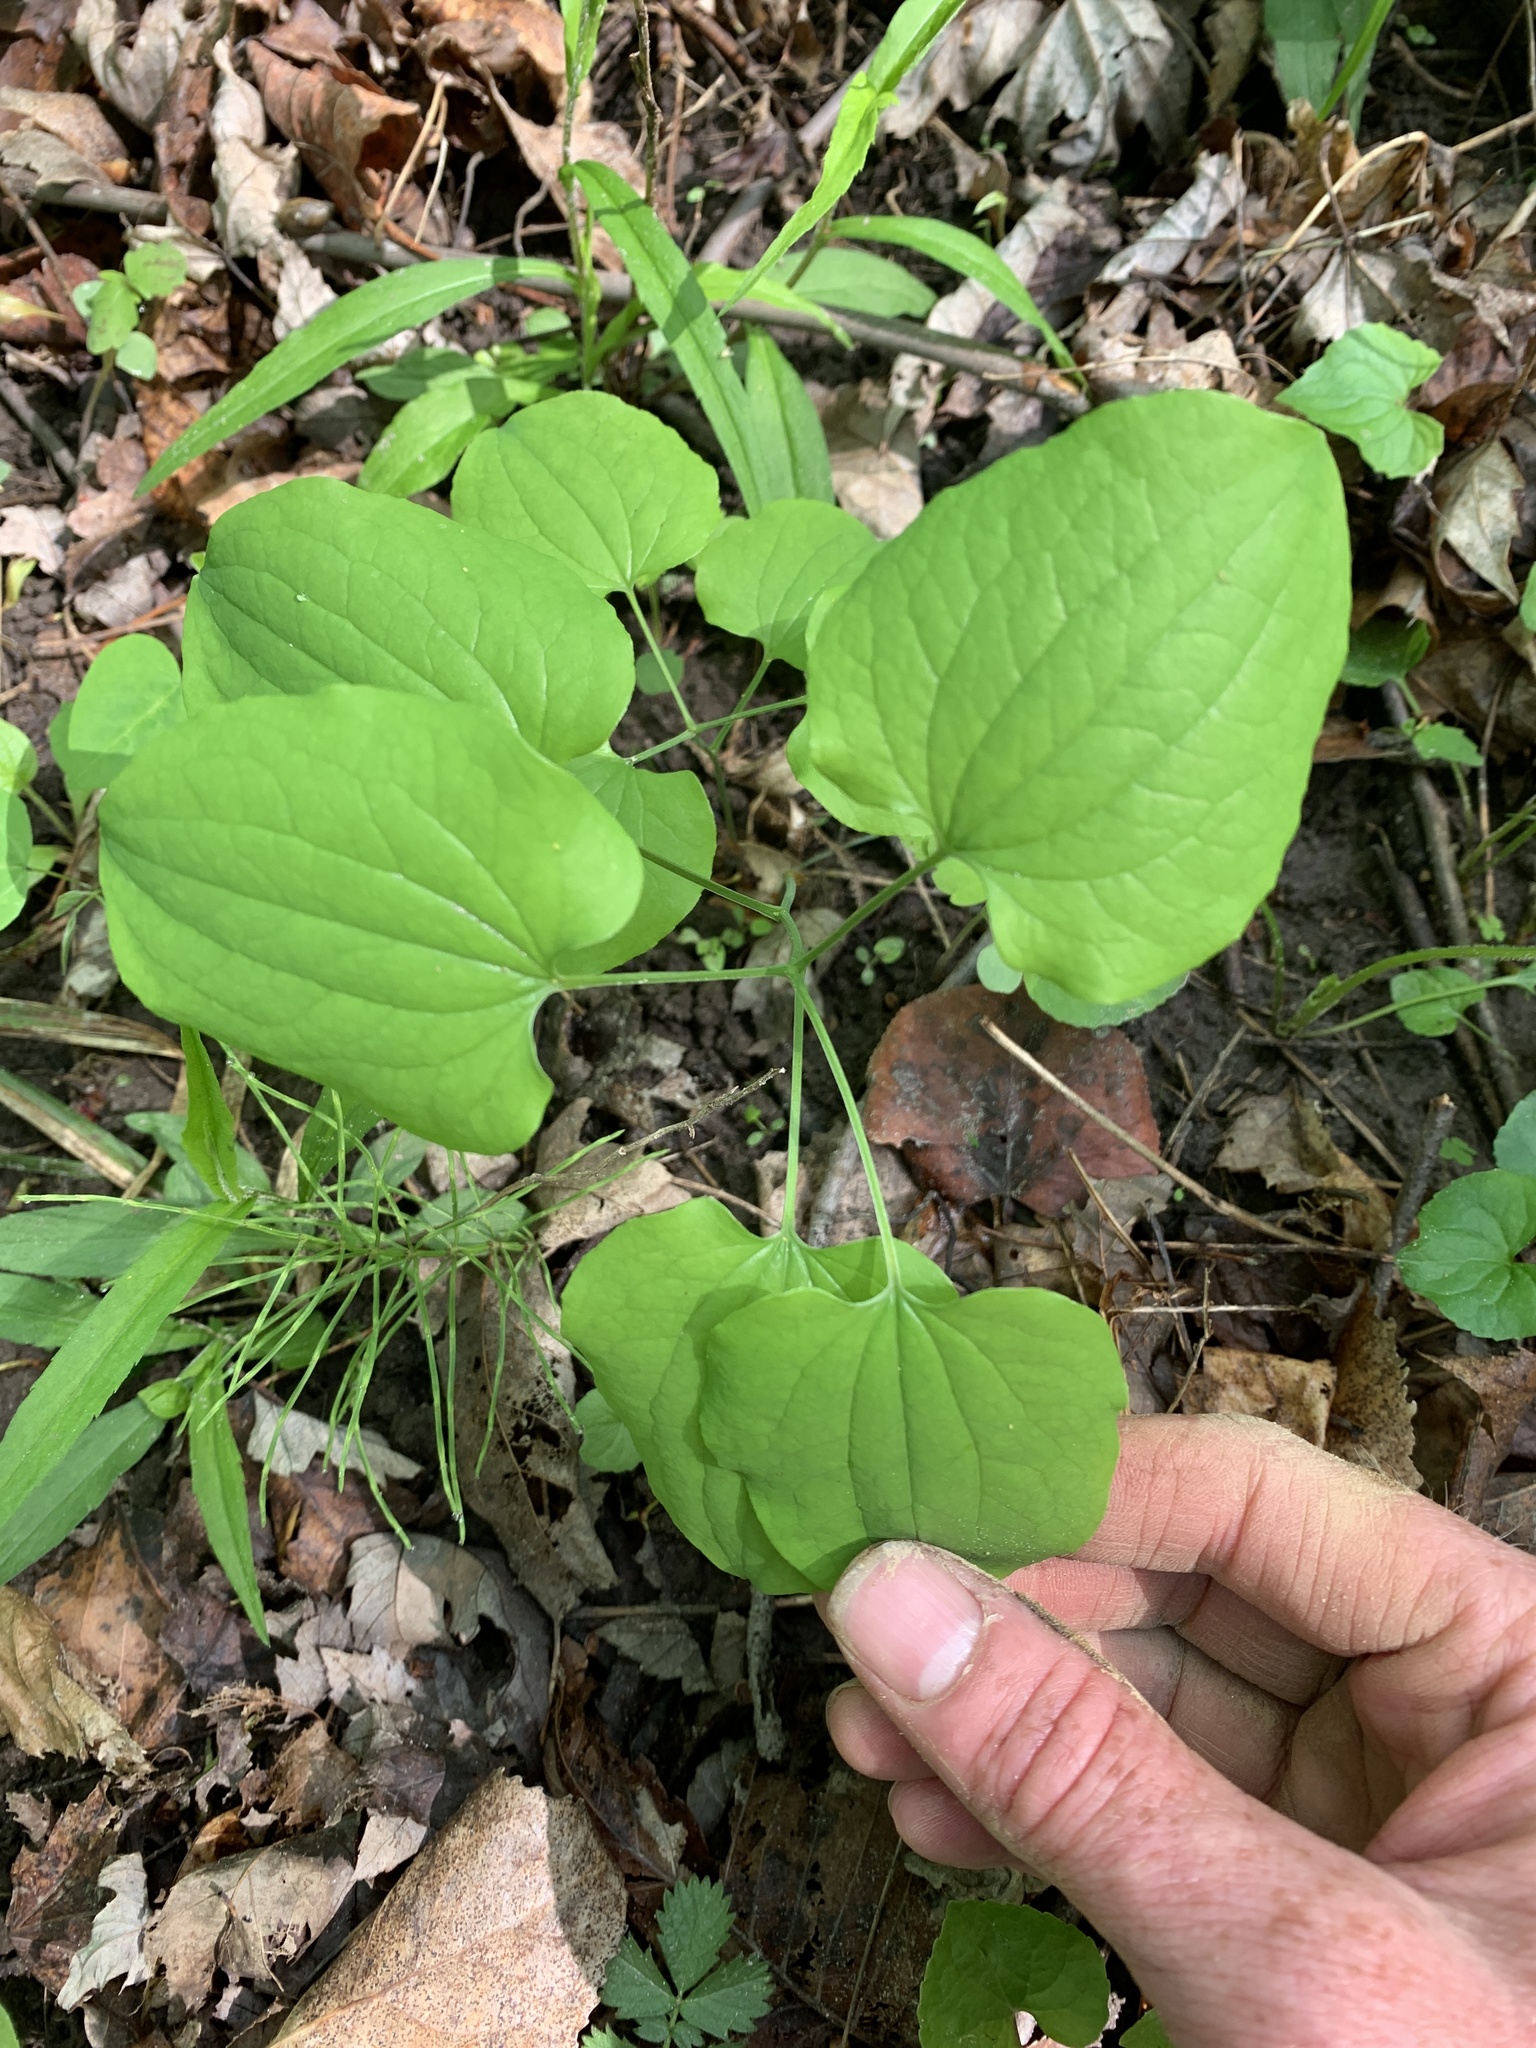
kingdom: Plantae
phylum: Tracheophyta
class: Liliopsida
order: Liliales
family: Smilacaceae
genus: Smilax
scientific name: Smilax herbacea
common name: Jacob's-ladder
